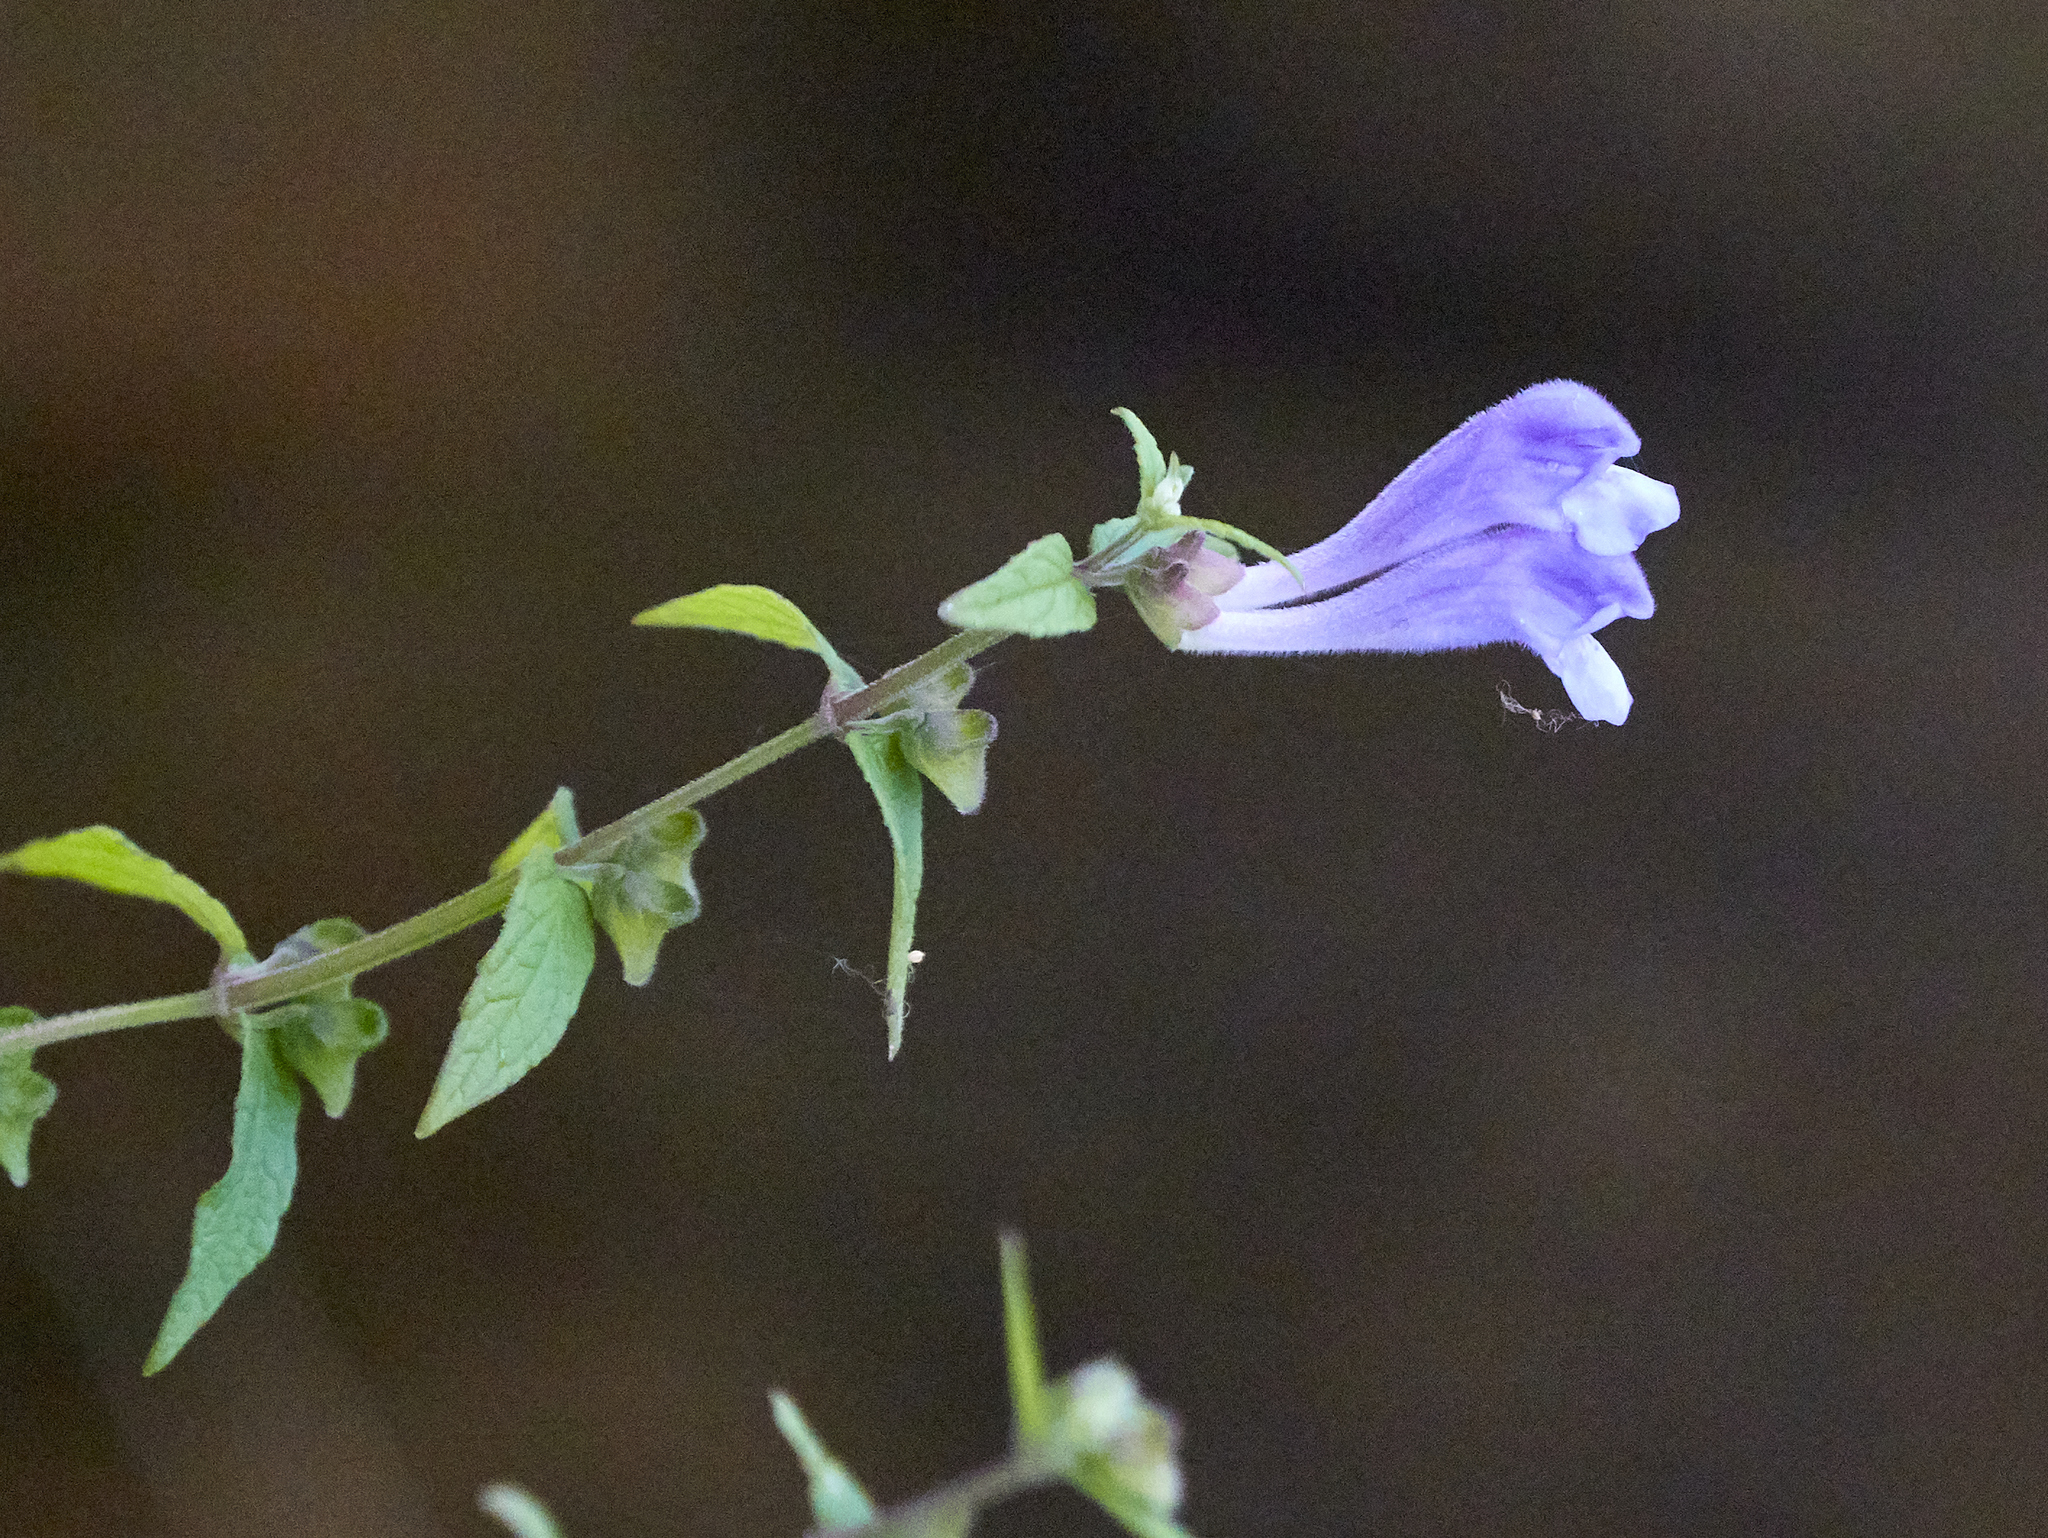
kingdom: Plantae
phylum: Tracheophyta
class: Magnoliopsida
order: Lamiales
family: Lamiaceae
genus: Scutellaria
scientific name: Scutellaria galericulata
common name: Skullcap
